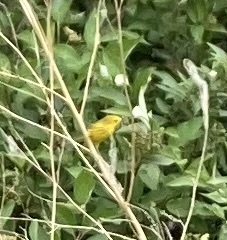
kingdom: Animalia
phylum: Chordata
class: Aves
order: Passeriformes
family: Parulidae
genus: Setophaga
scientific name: Setophaga petechia
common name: Yellow warbler
